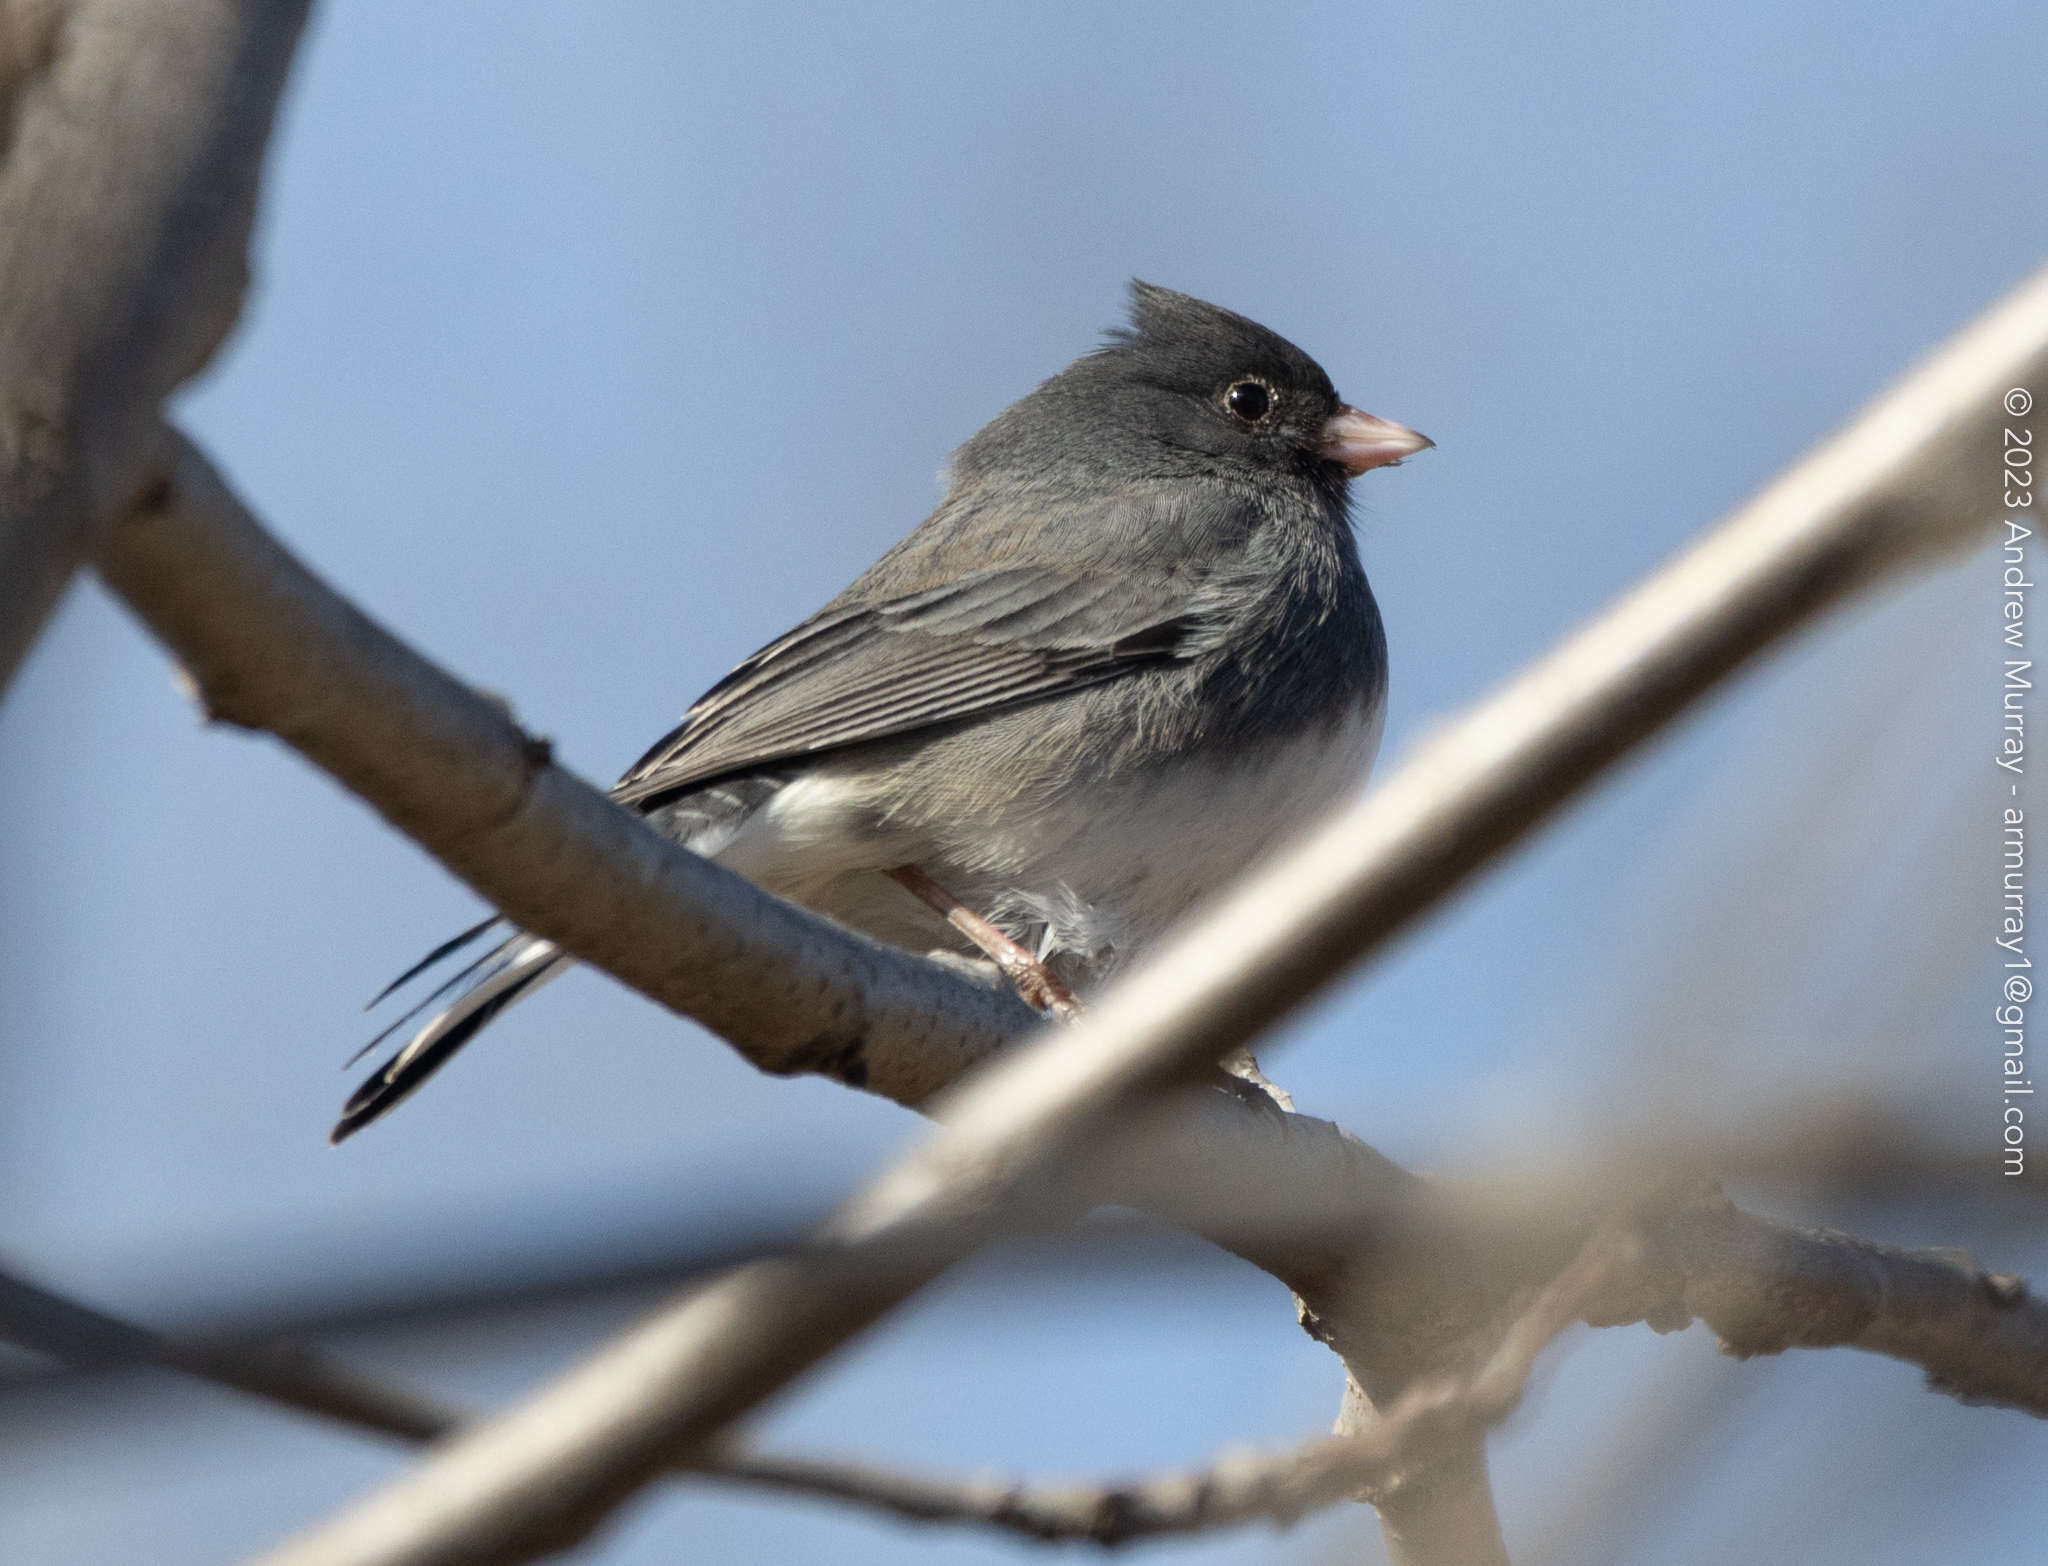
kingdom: Animalia
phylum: Chordata
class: Aves
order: Passeriformes
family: Passerellidae
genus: Junco
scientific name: Junco hyemalis
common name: Dark-eyed junco
